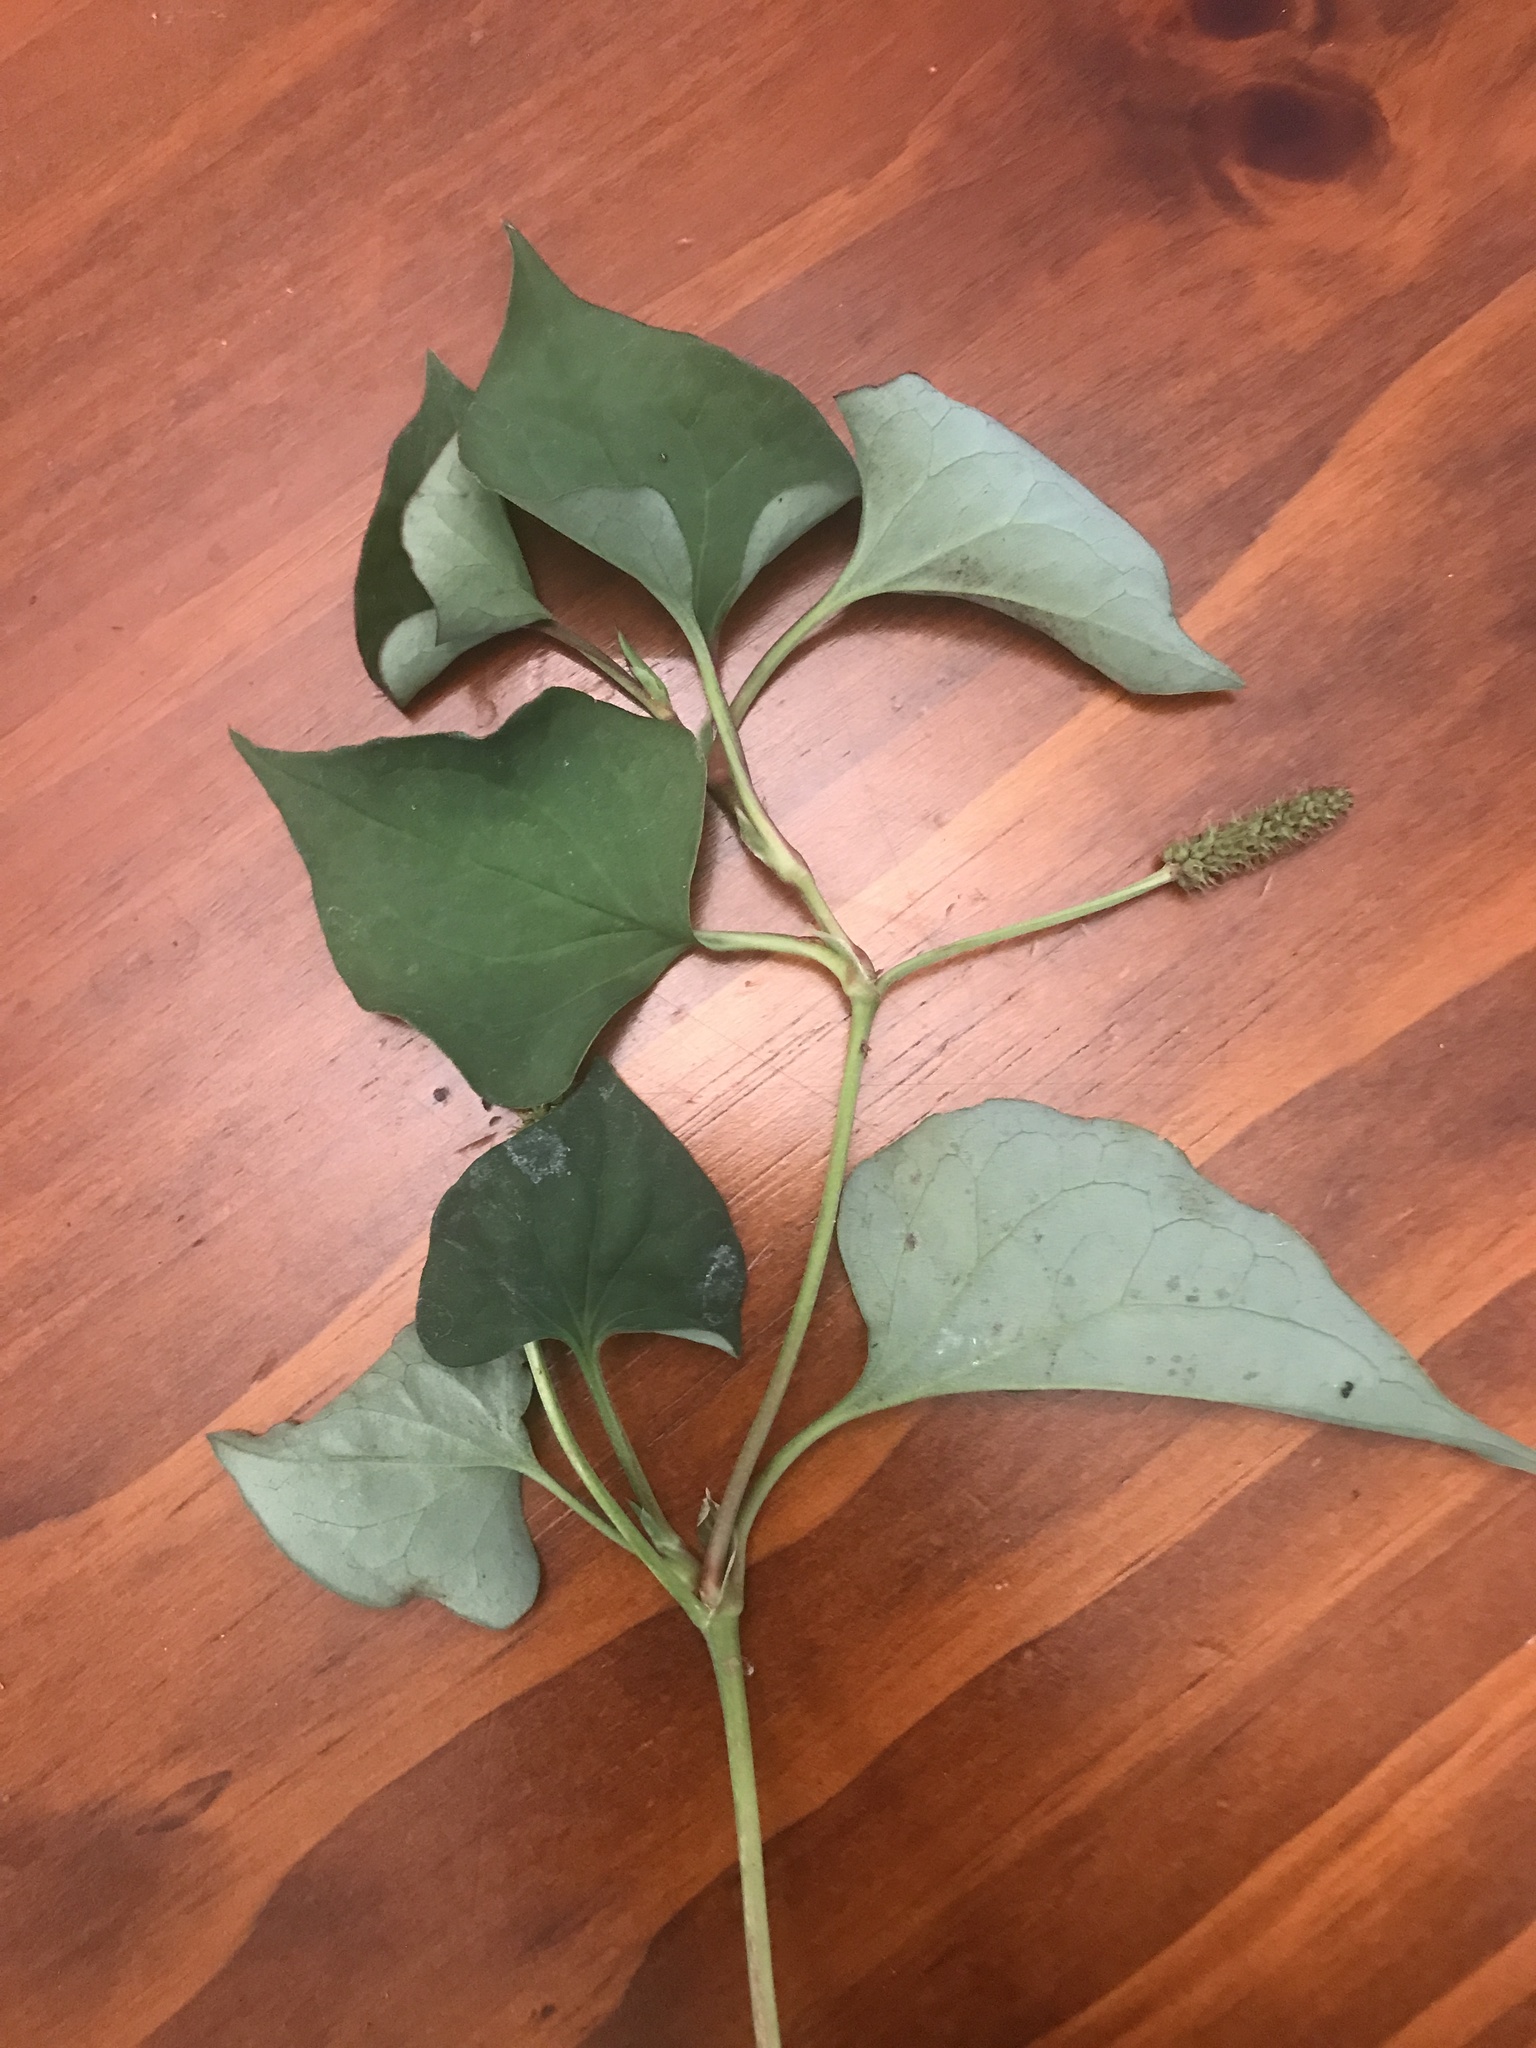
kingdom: Plantae
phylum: Tracheophyta
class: Magnoliopsida
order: Piperales
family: Saururaceae
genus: Houttuynia
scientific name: Houttuynia cordata
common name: Chameleon
